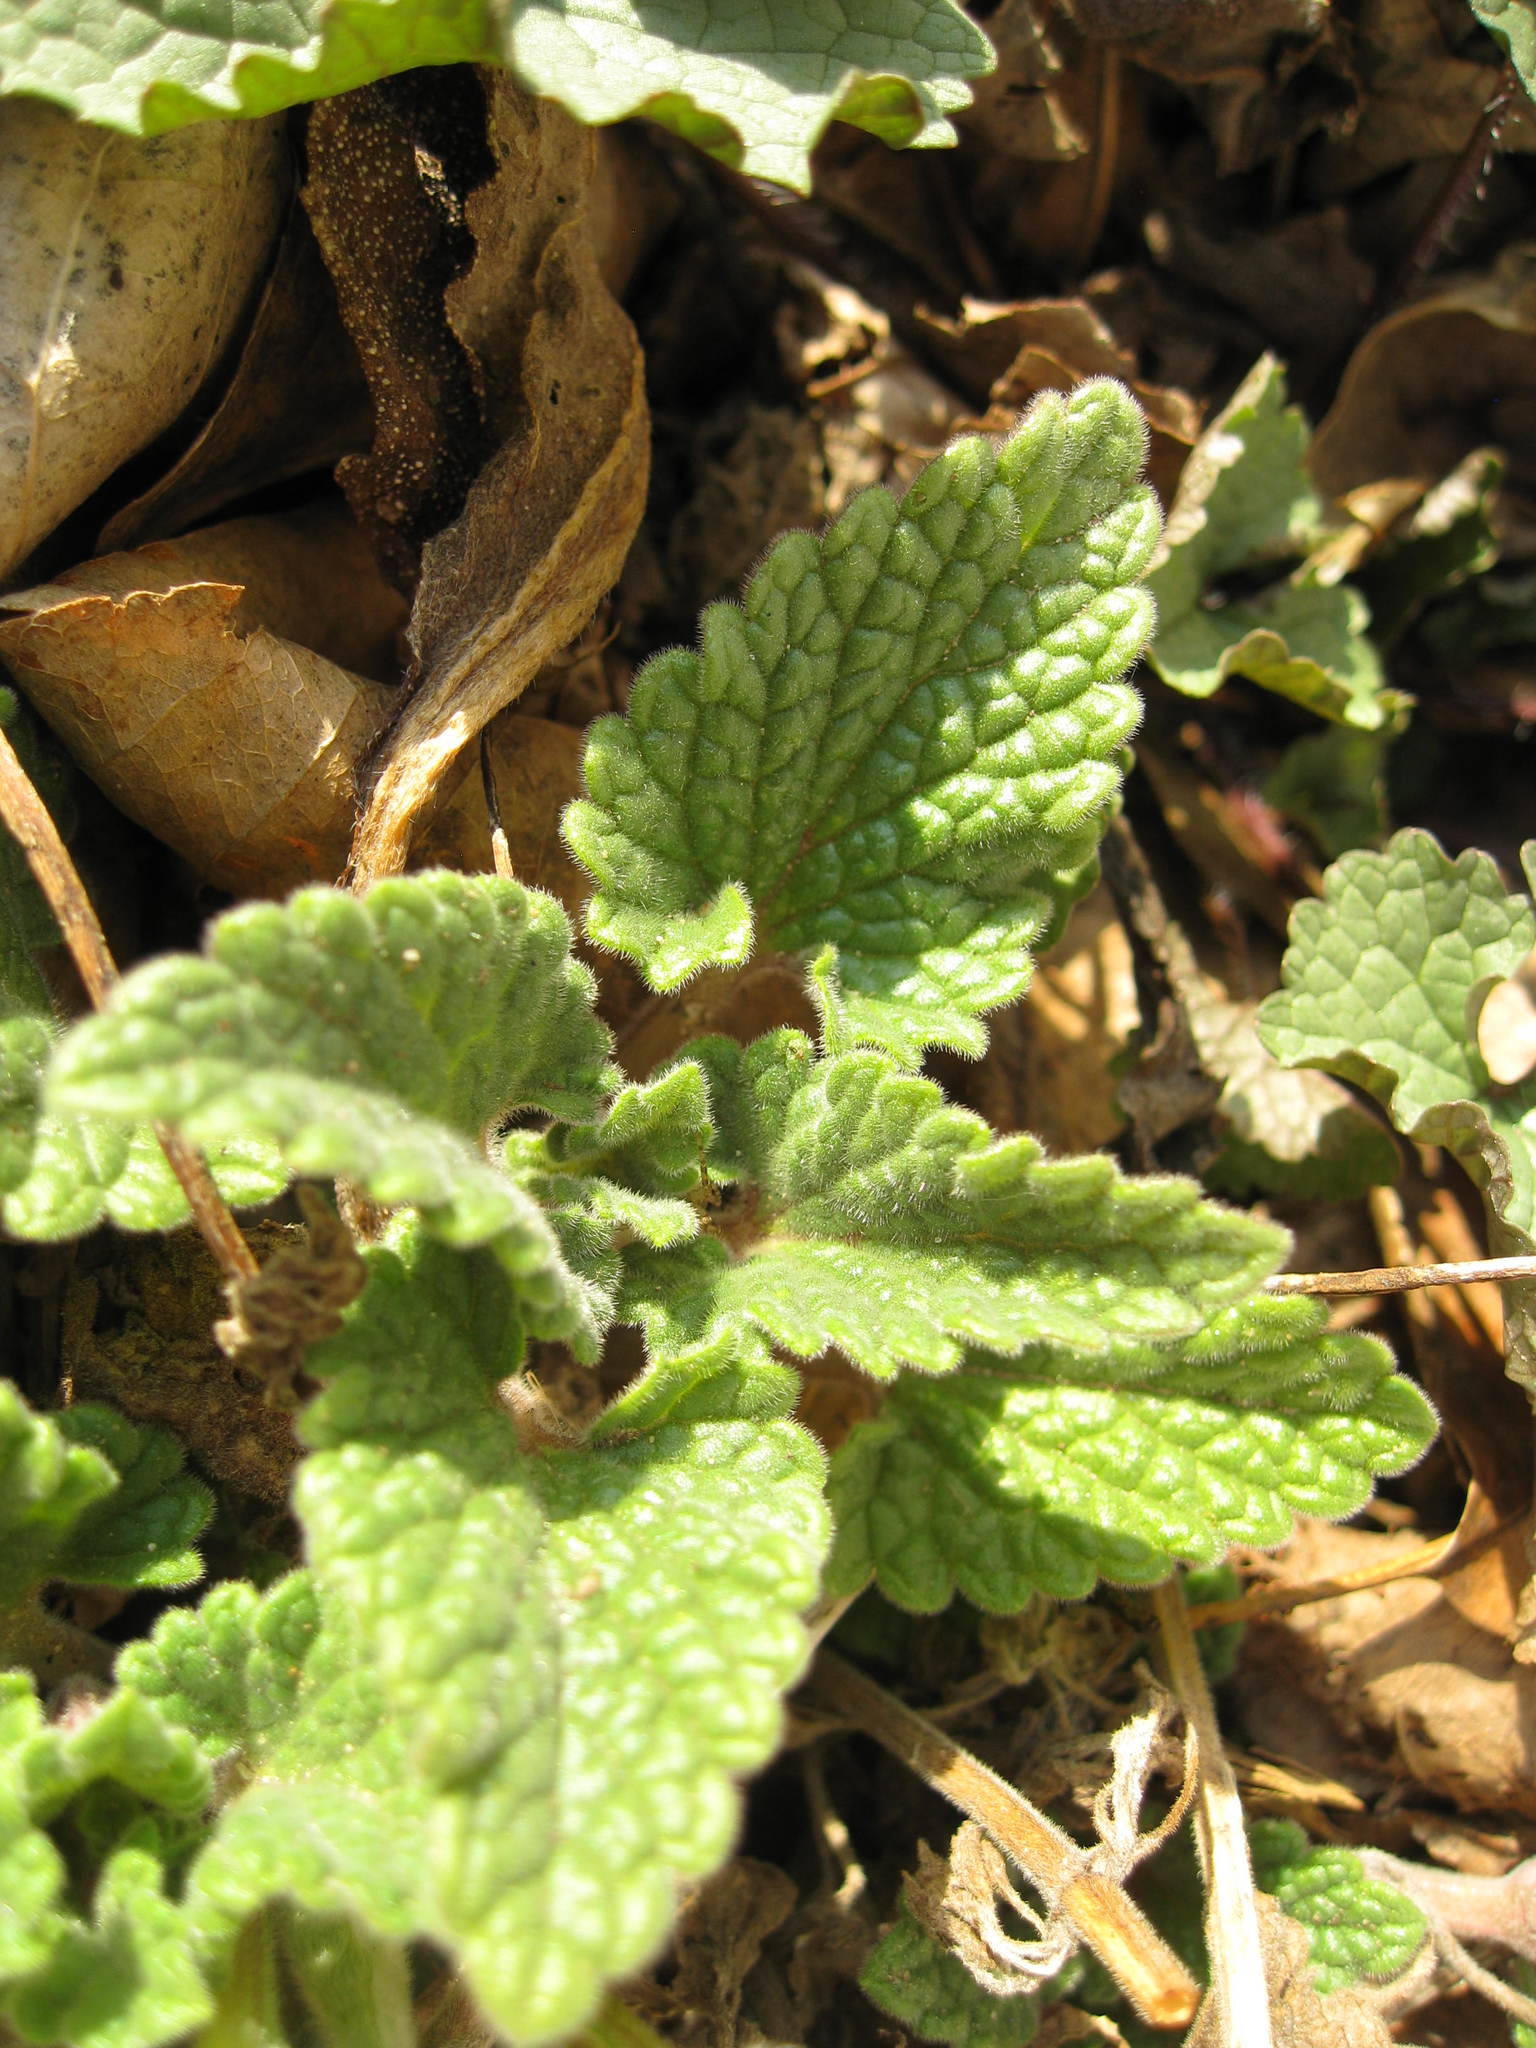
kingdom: Plantae
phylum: Tracheophyta
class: Magnoliopsida
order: Lamiales
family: Lamiaceae
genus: Nepeta
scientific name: Nepeta cataria
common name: Catnip
